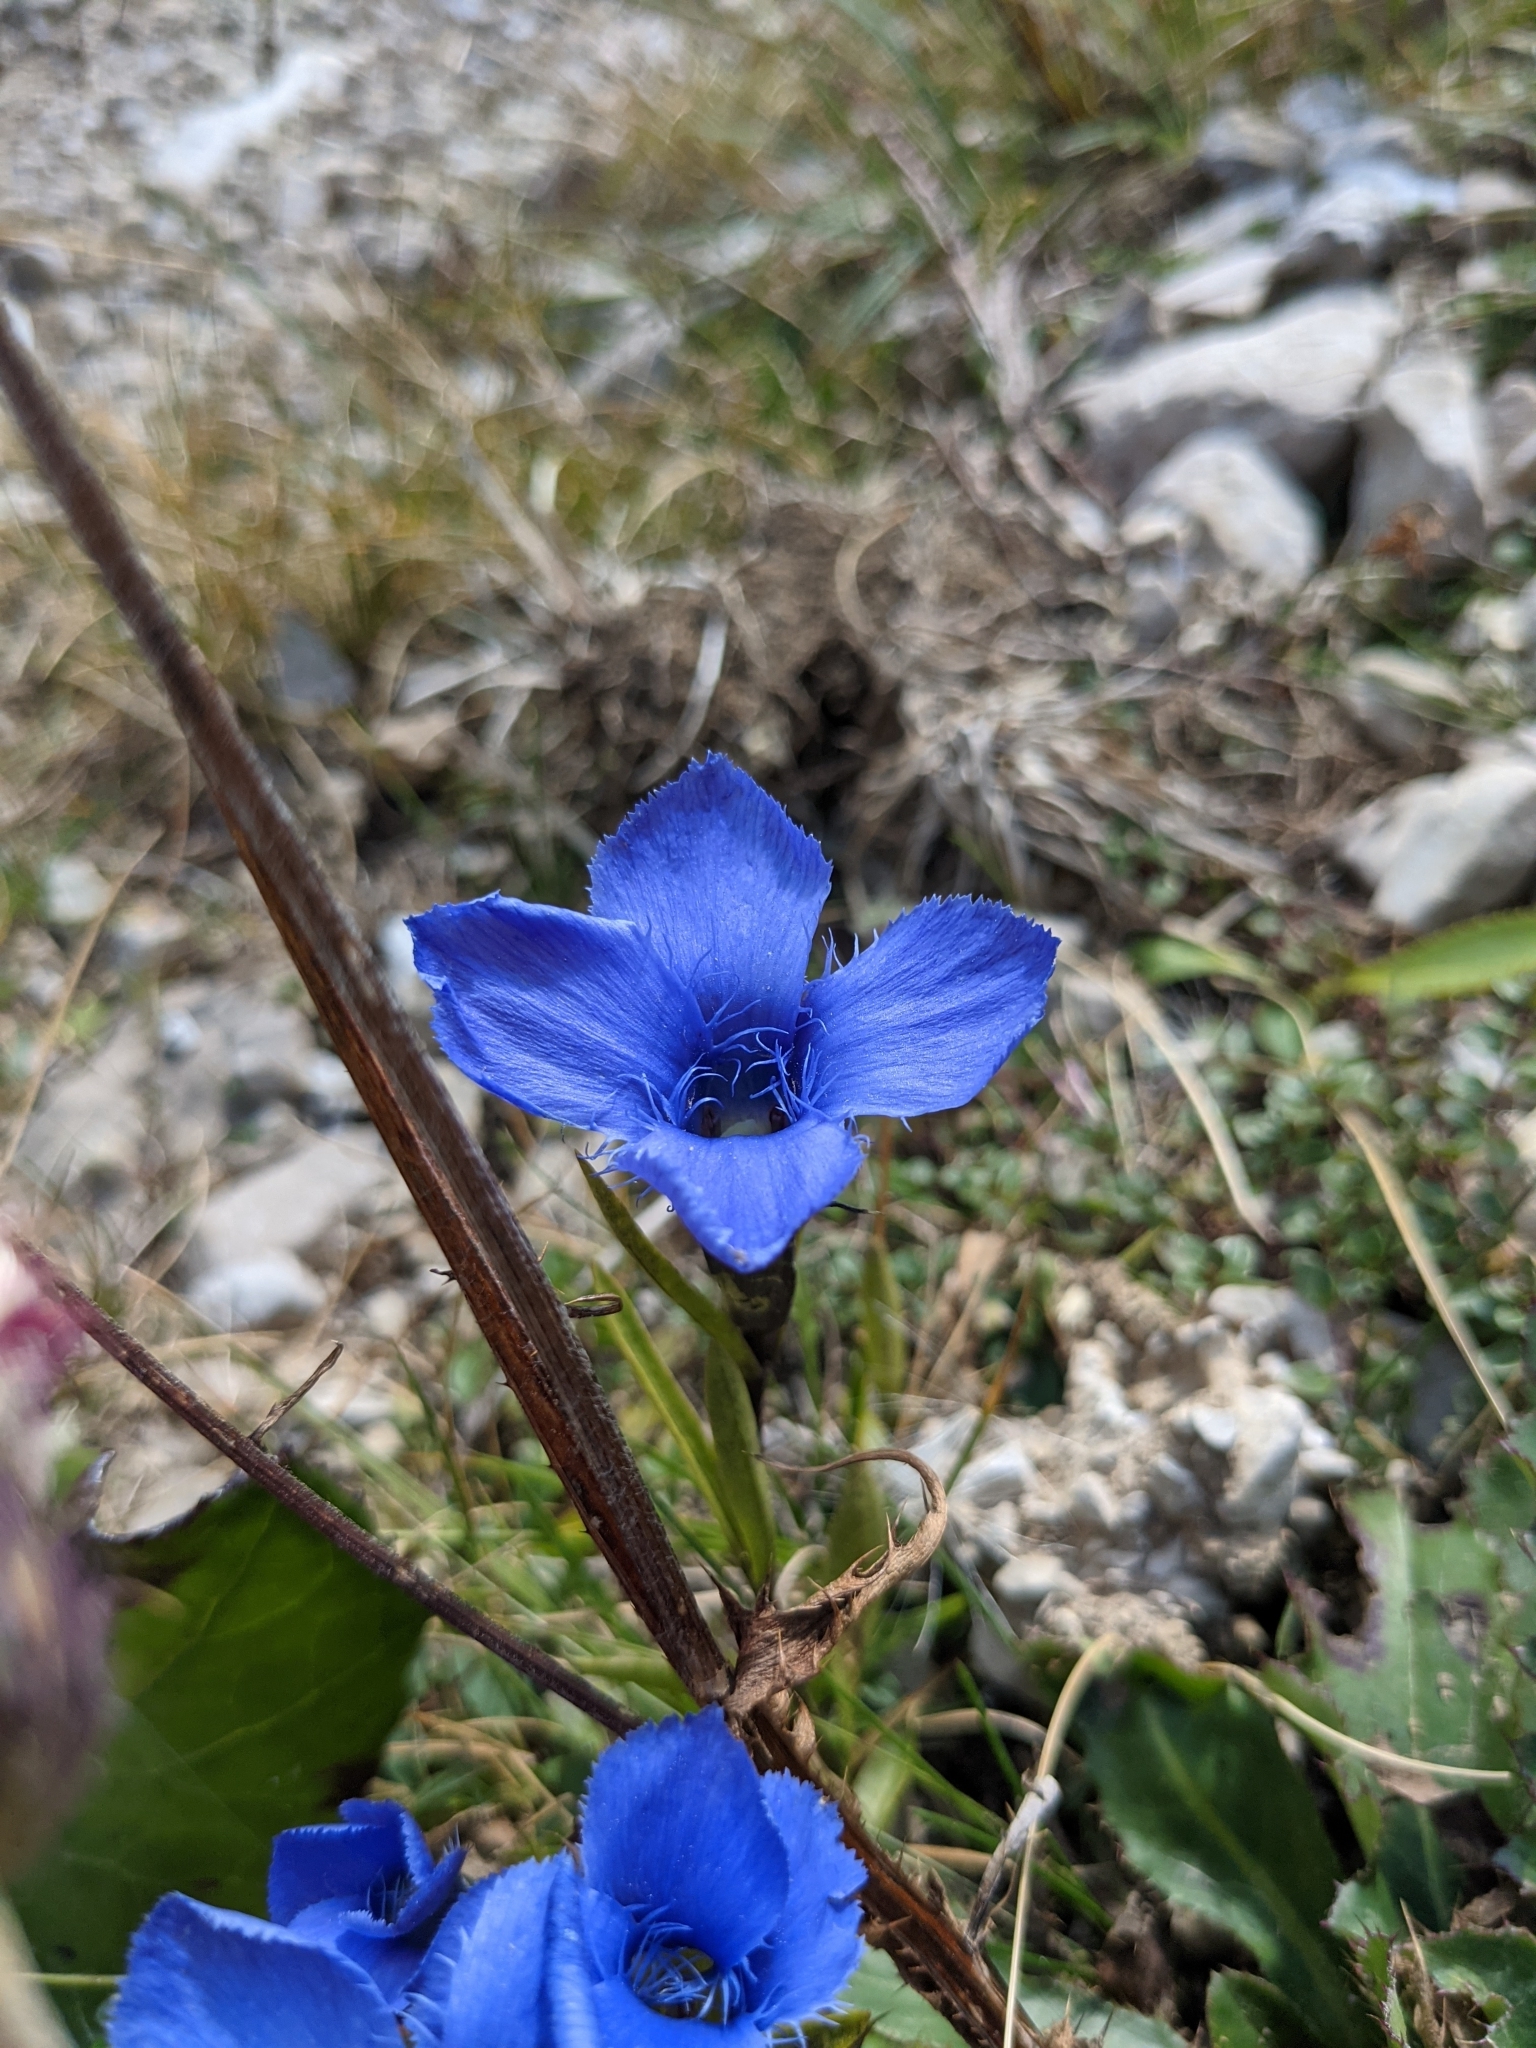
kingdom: Plantae
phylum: Tracheophyta
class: Magnoliopsida
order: Gentianales
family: Gentianaceae
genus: Gentianopsis
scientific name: Gentianopsis ciliata
